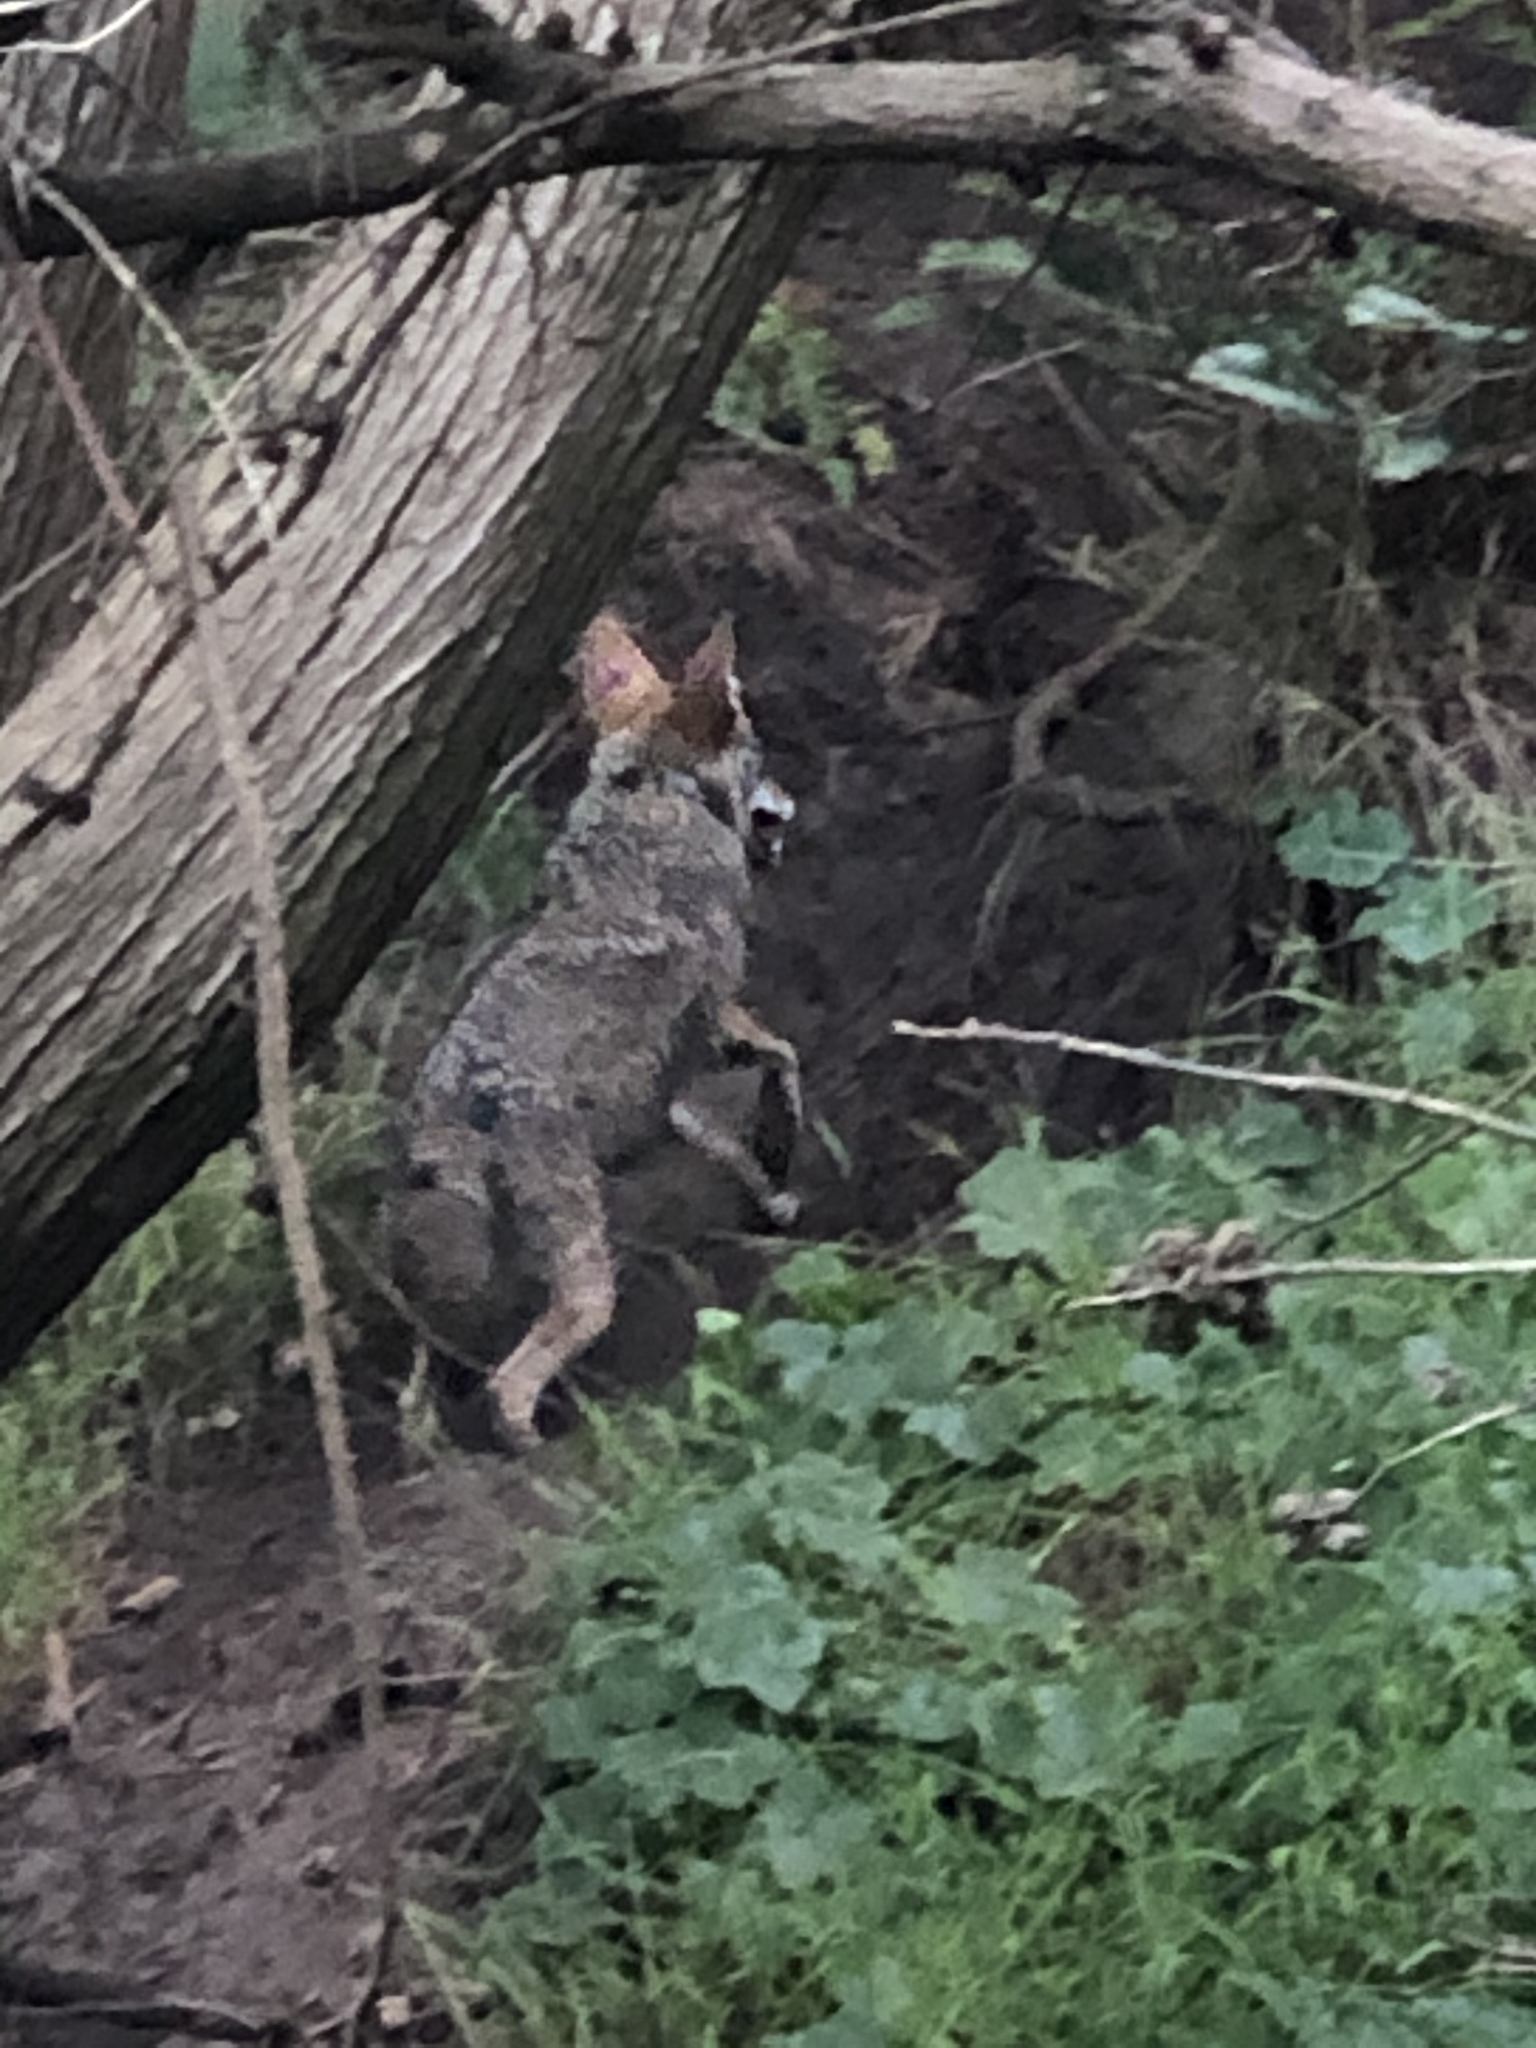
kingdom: Animalia
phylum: Chordata
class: Mammalia
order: Carnivora
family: Canidae
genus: Canis
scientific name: Canis latrans
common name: Coyote
